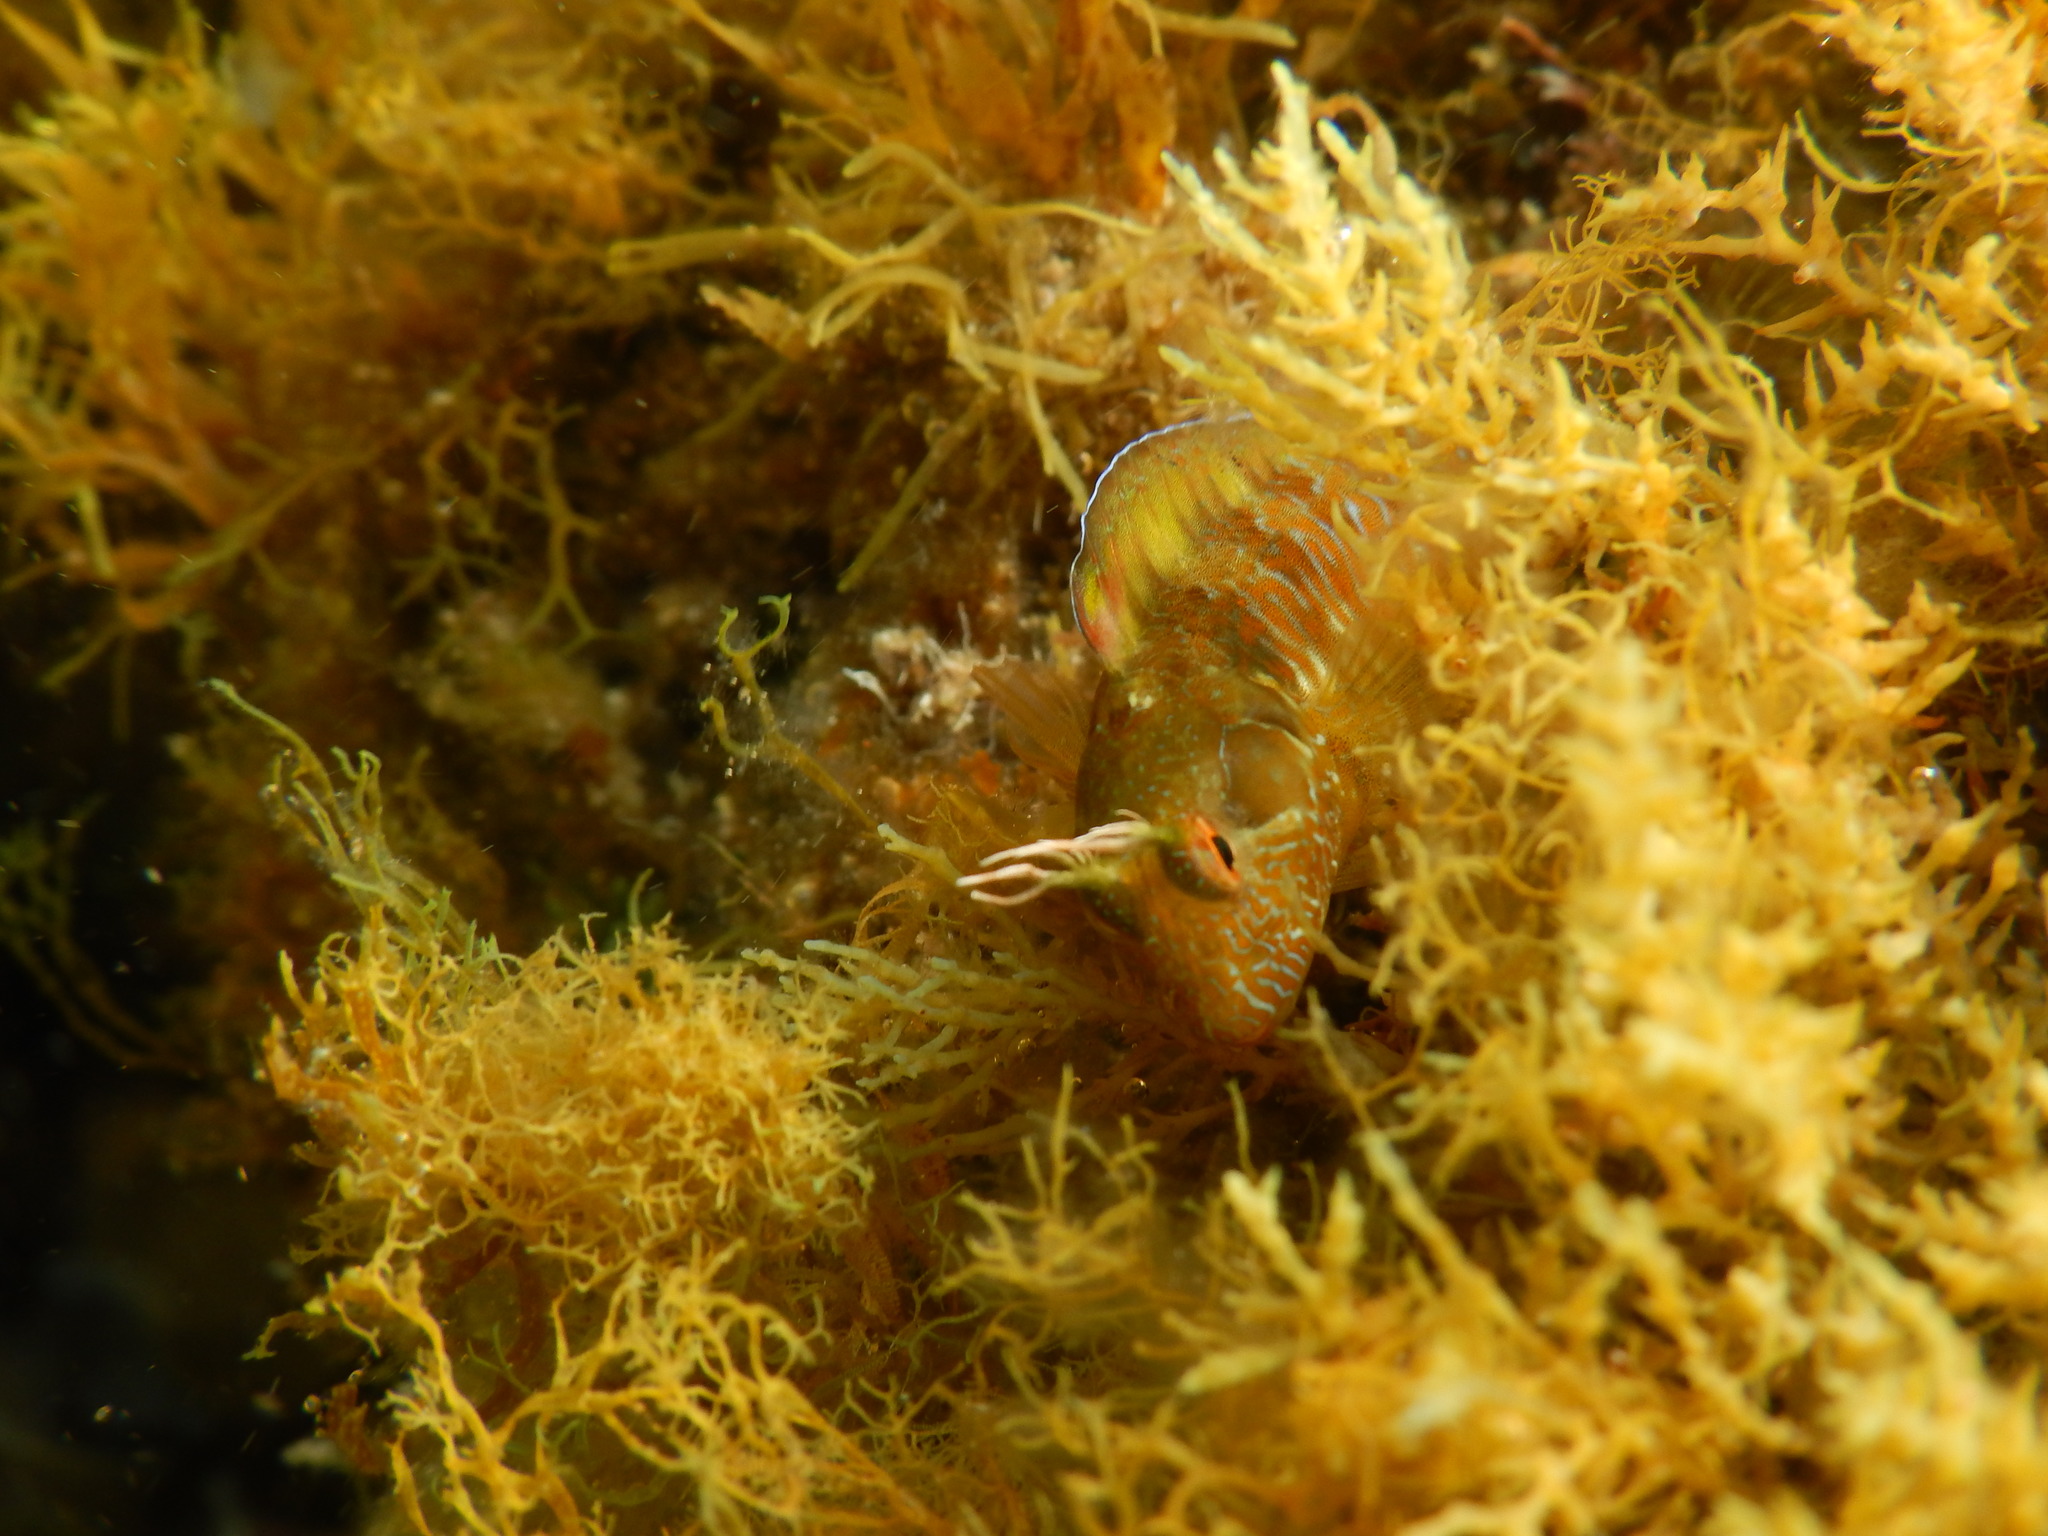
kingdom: Animalia
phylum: Chordata
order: Perciformes
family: Blenniidae
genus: Parablennius
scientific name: Parablennius incognitus
